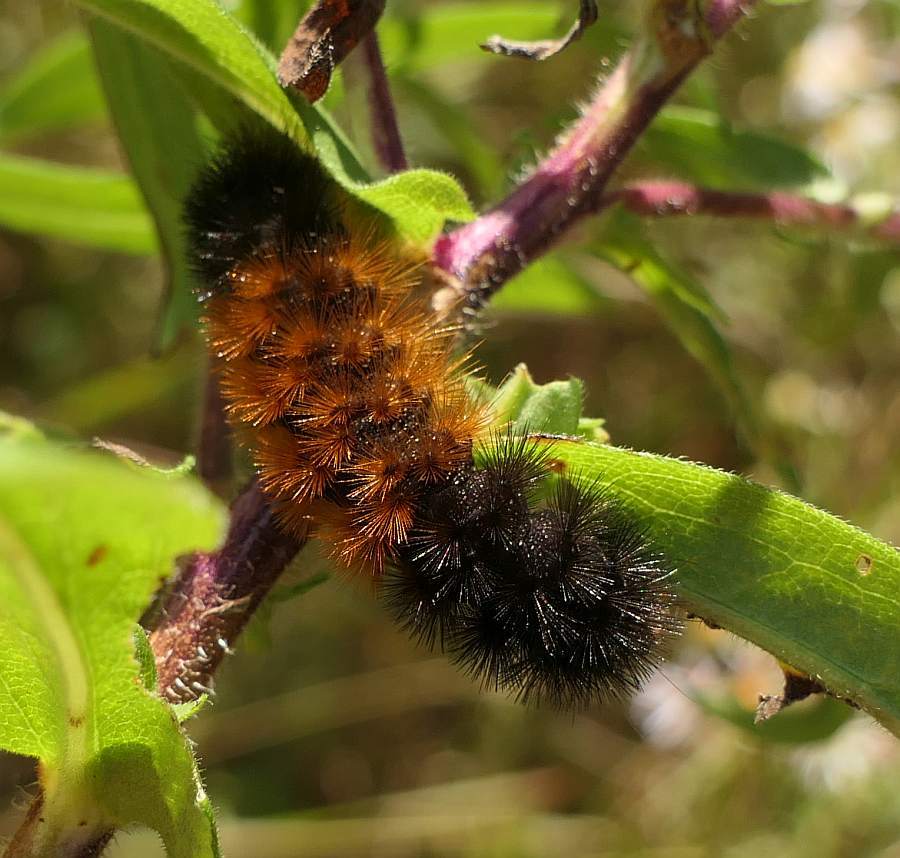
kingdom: Animalia
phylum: Arthropoda
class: Insecta
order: Lepidoptera
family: Erebidae
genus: Pyrrharctia
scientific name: Pyrrharctia isabella
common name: Isabella tiger moth
